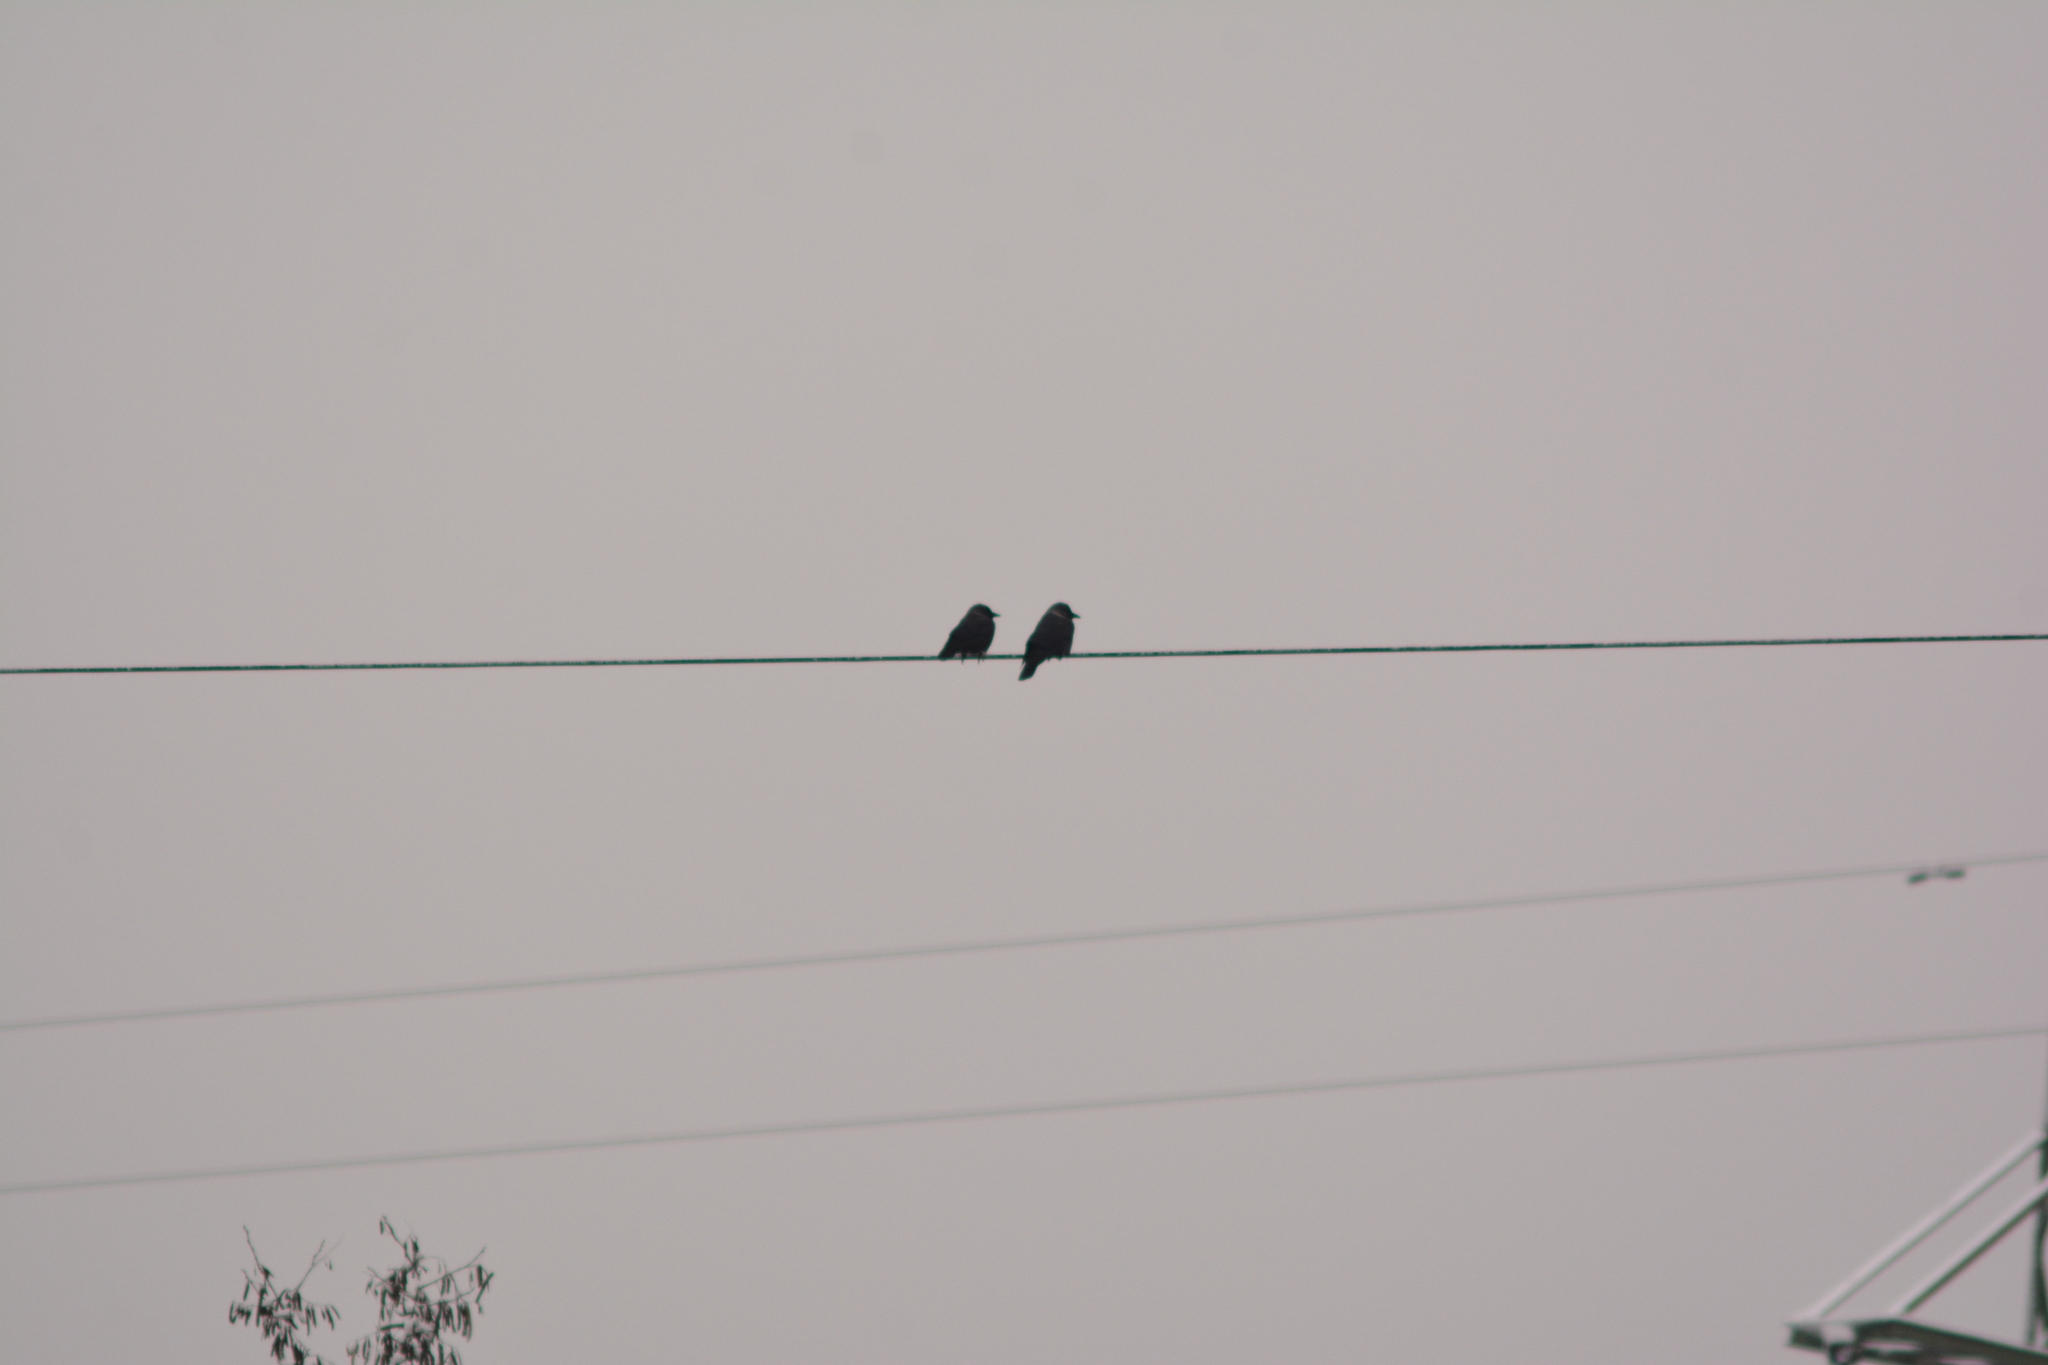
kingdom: Animalia
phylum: Chordata
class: Aves
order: Passeriformes
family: Corvidae
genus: Coloeus
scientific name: Coloeus monedula
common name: Western jackdaw
